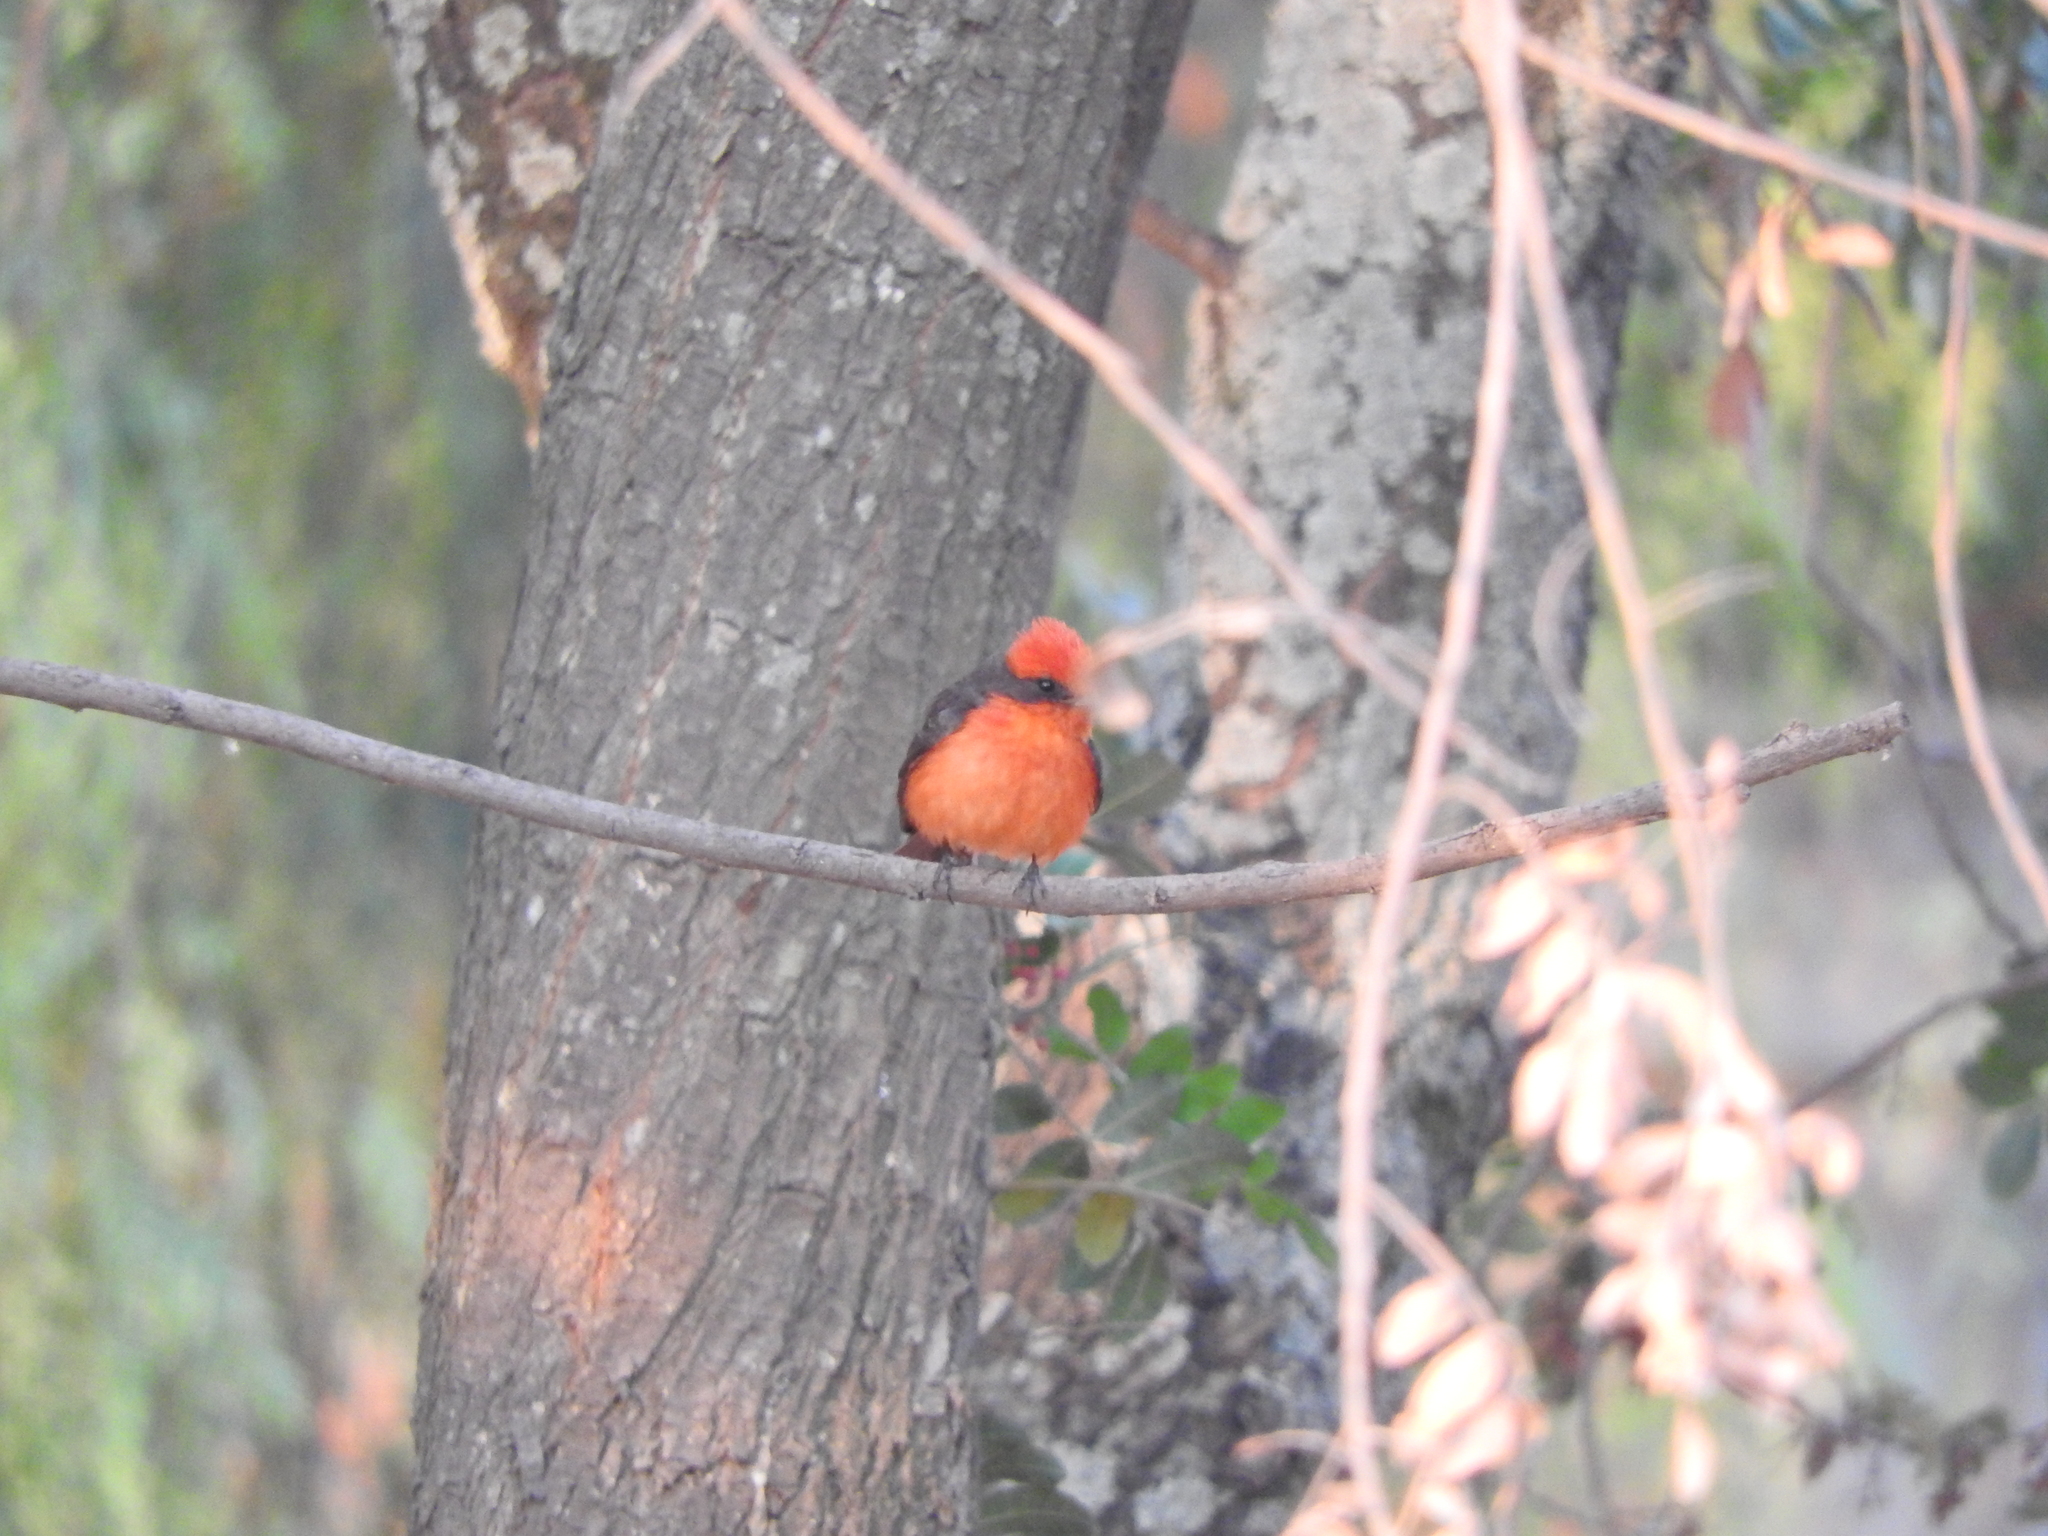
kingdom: Animalia
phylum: Chordata
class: Aves
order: Passeriformes
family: Tyrannidae
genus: Pyrocephalus
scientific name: Pyrocephalus rubinus
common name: Vermilion flycatcher
